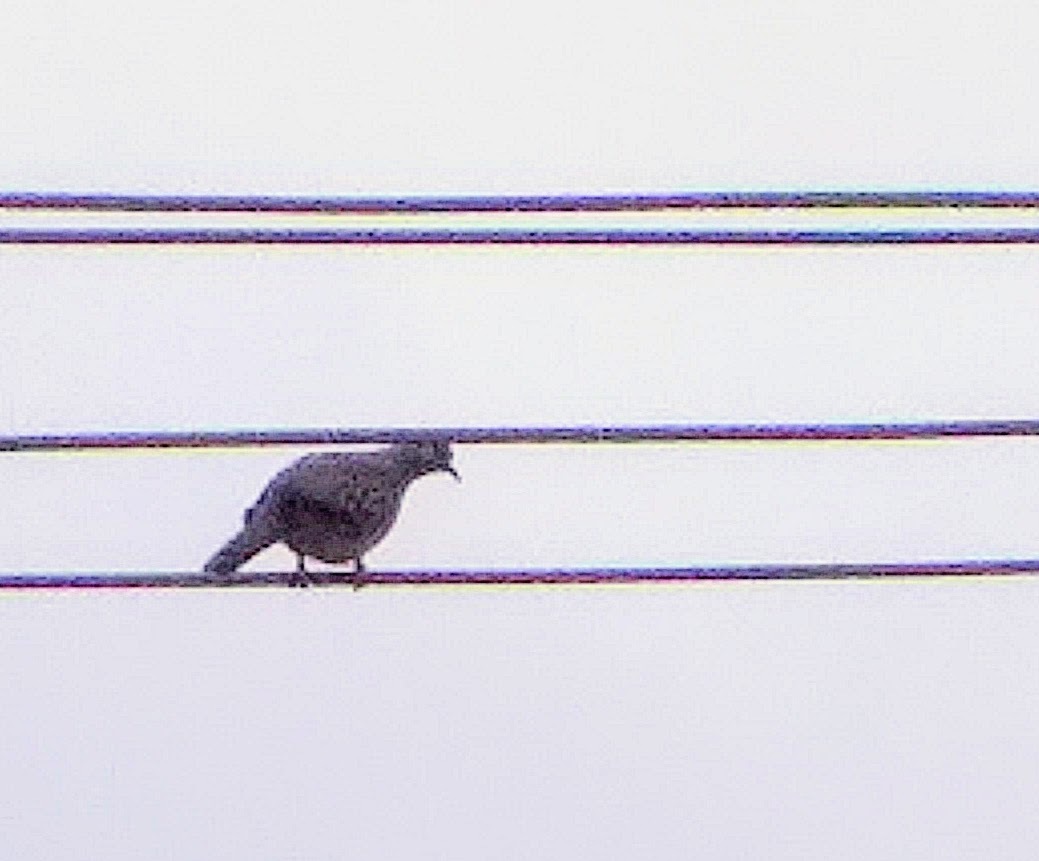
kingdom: Animalia
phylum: Chordata
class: Aves
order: Columbiformes
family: Columbidae
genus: Spilopelia
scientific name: Spilopelia chinensis
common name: Spotted dove
